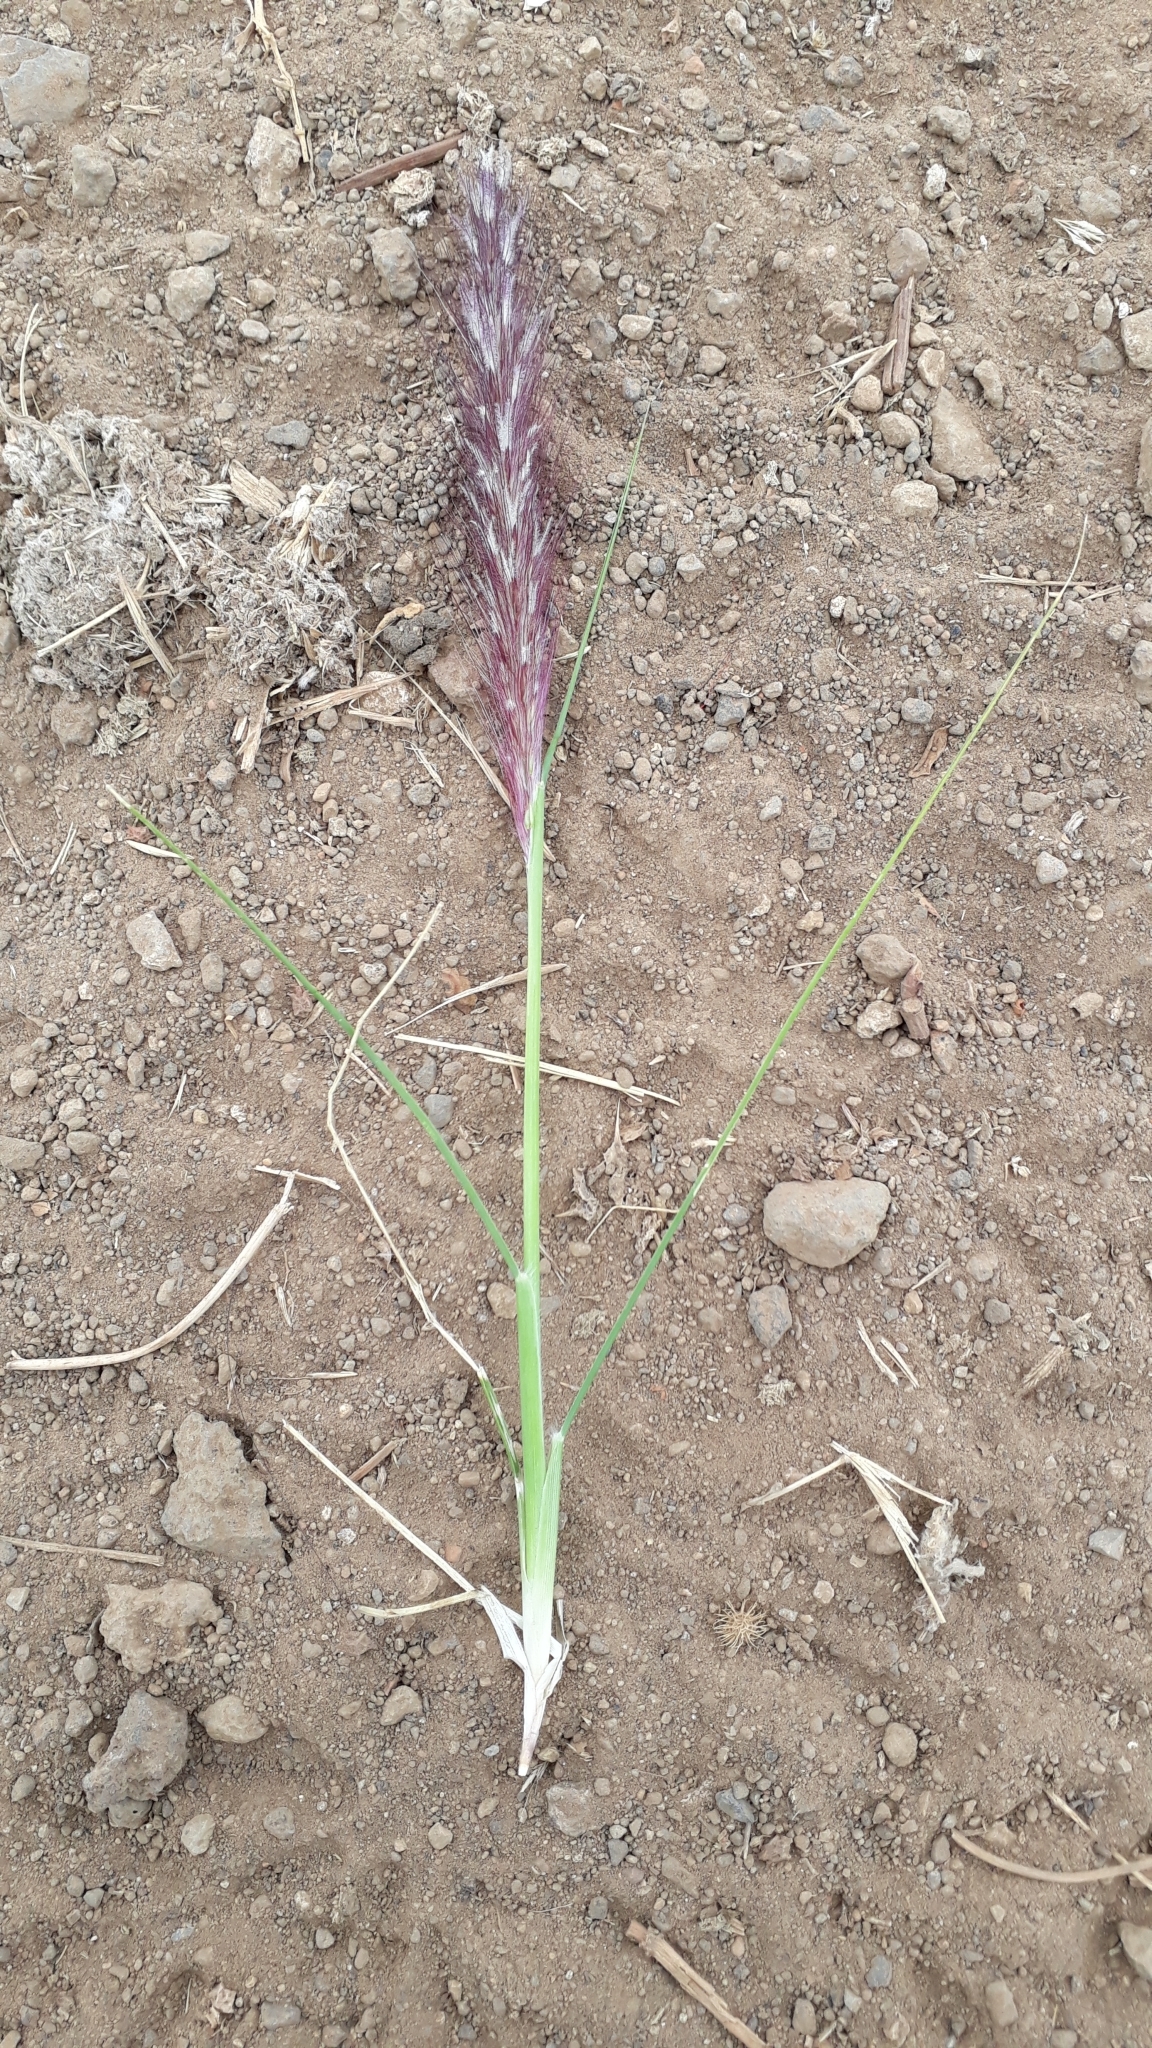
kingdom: Plantae
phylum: Tracheophyta
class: Liliopsida
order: Poales
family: Poaceae
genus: Cenchrus
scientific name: Cenchrus setaceus
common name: Crimson fountaingrass
